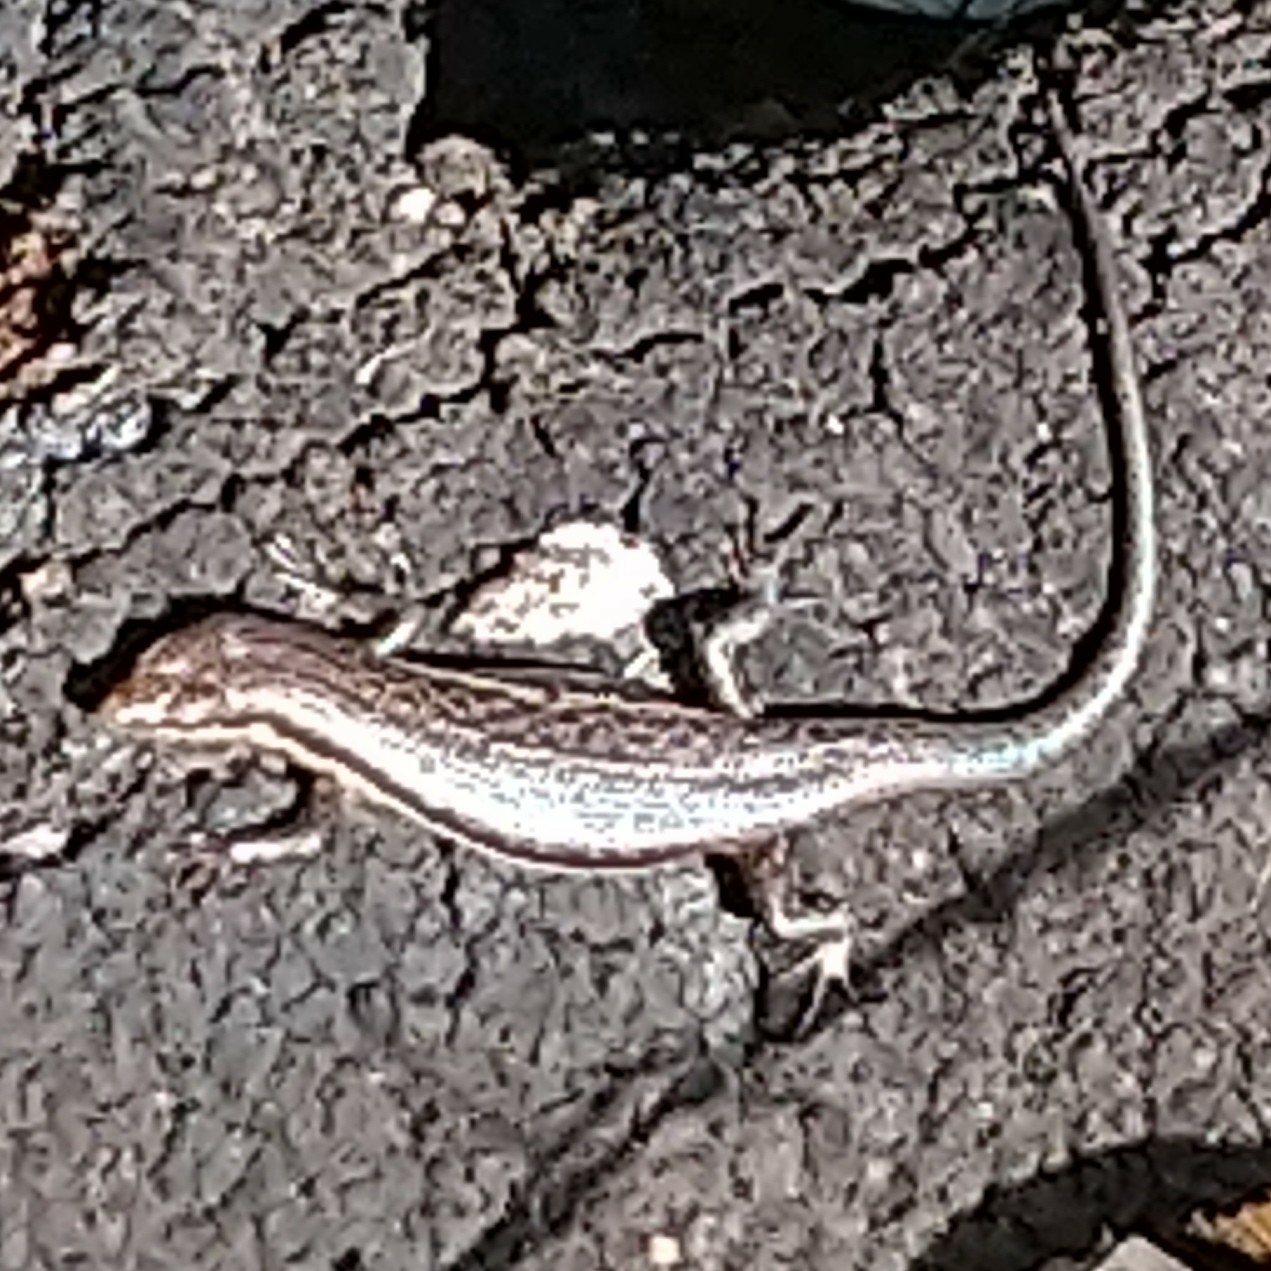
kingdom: Animalia
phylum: Chordata
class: Squamata
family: Scincidae
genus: Trachylepis
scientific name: Trachylepis laevigata
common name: Variable skink
